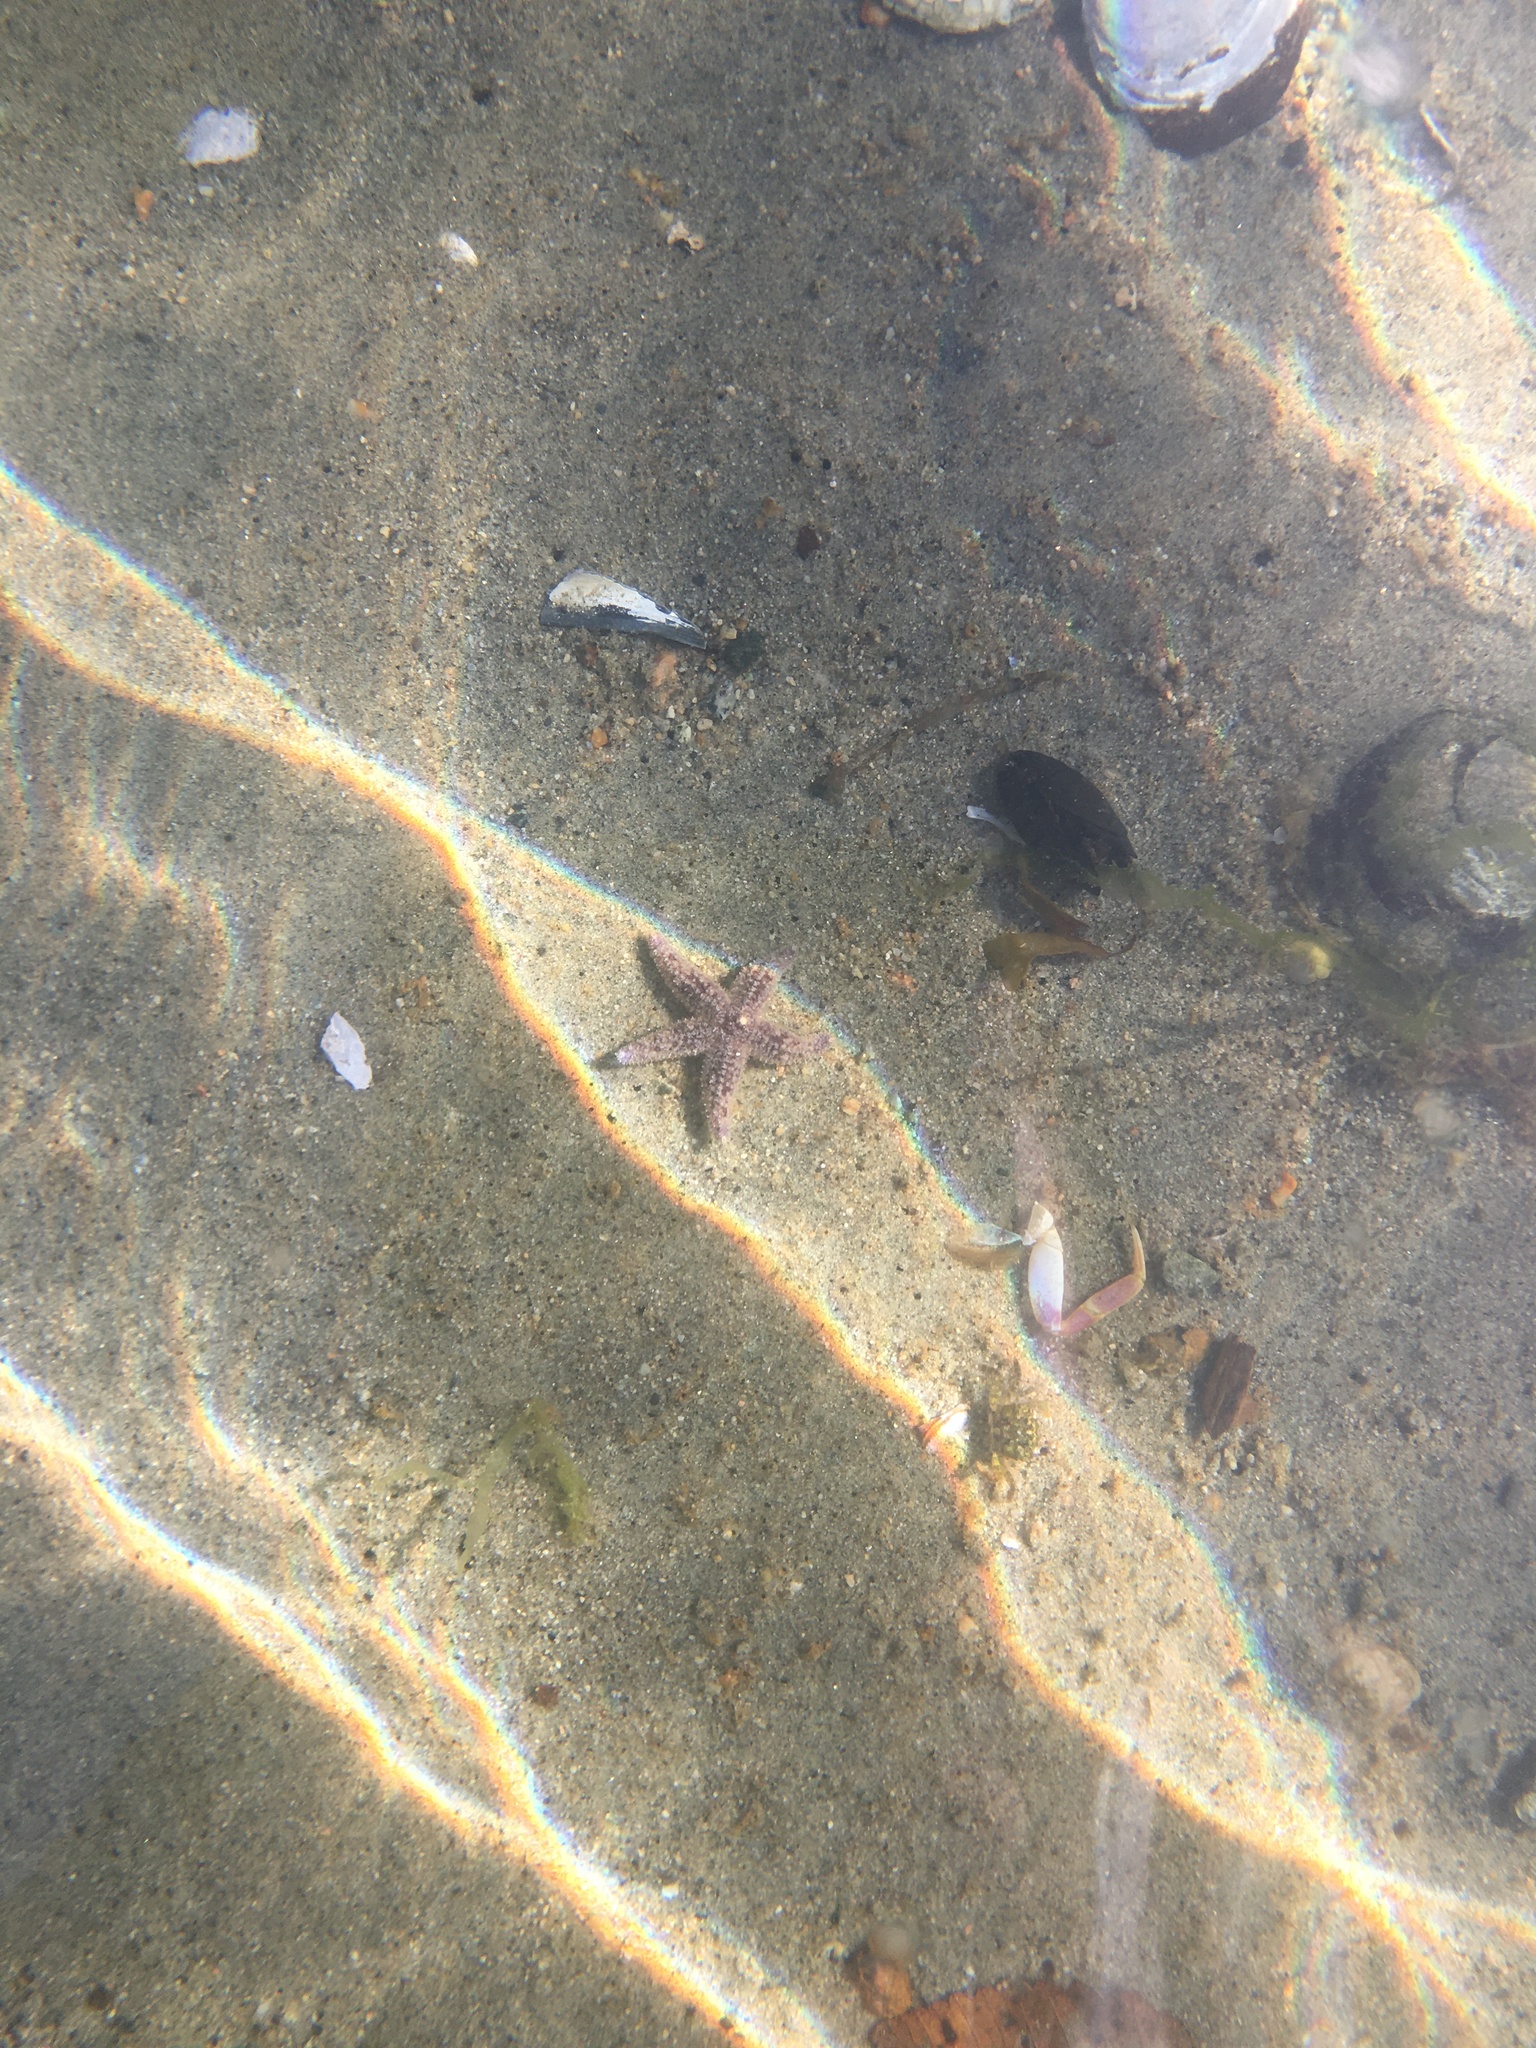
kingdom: Animalia
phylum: Echinodermata
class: Asteroidea
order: Forcipulatida
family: Asteriidae
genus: Pisaster
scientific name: Pisaster ochraceus
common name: Ochre stars
